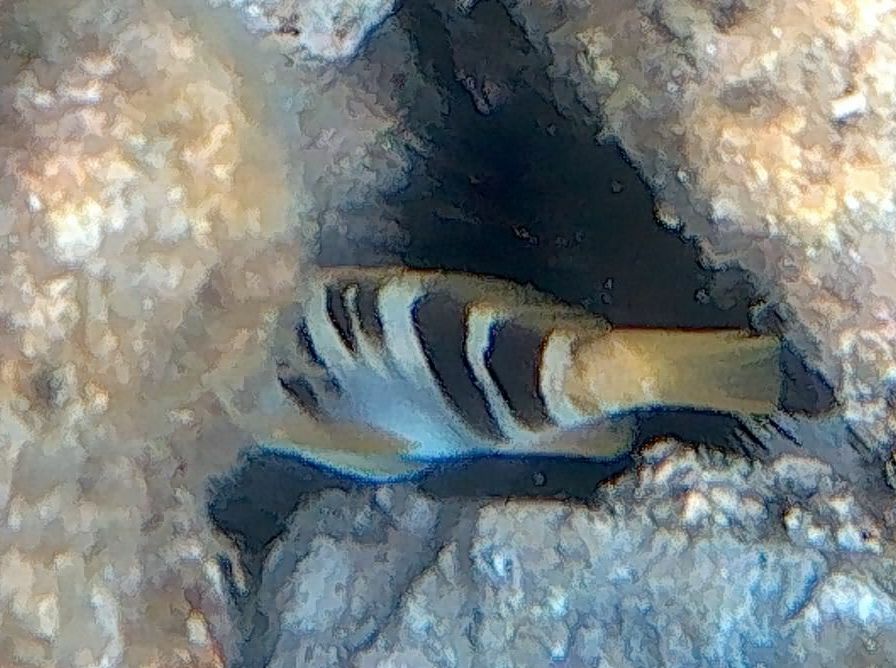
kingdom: Animalia
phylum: Chordata
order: Perciformes
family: Serranidae
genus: Serranus
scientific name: Serranus scriba
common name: Painted comber
